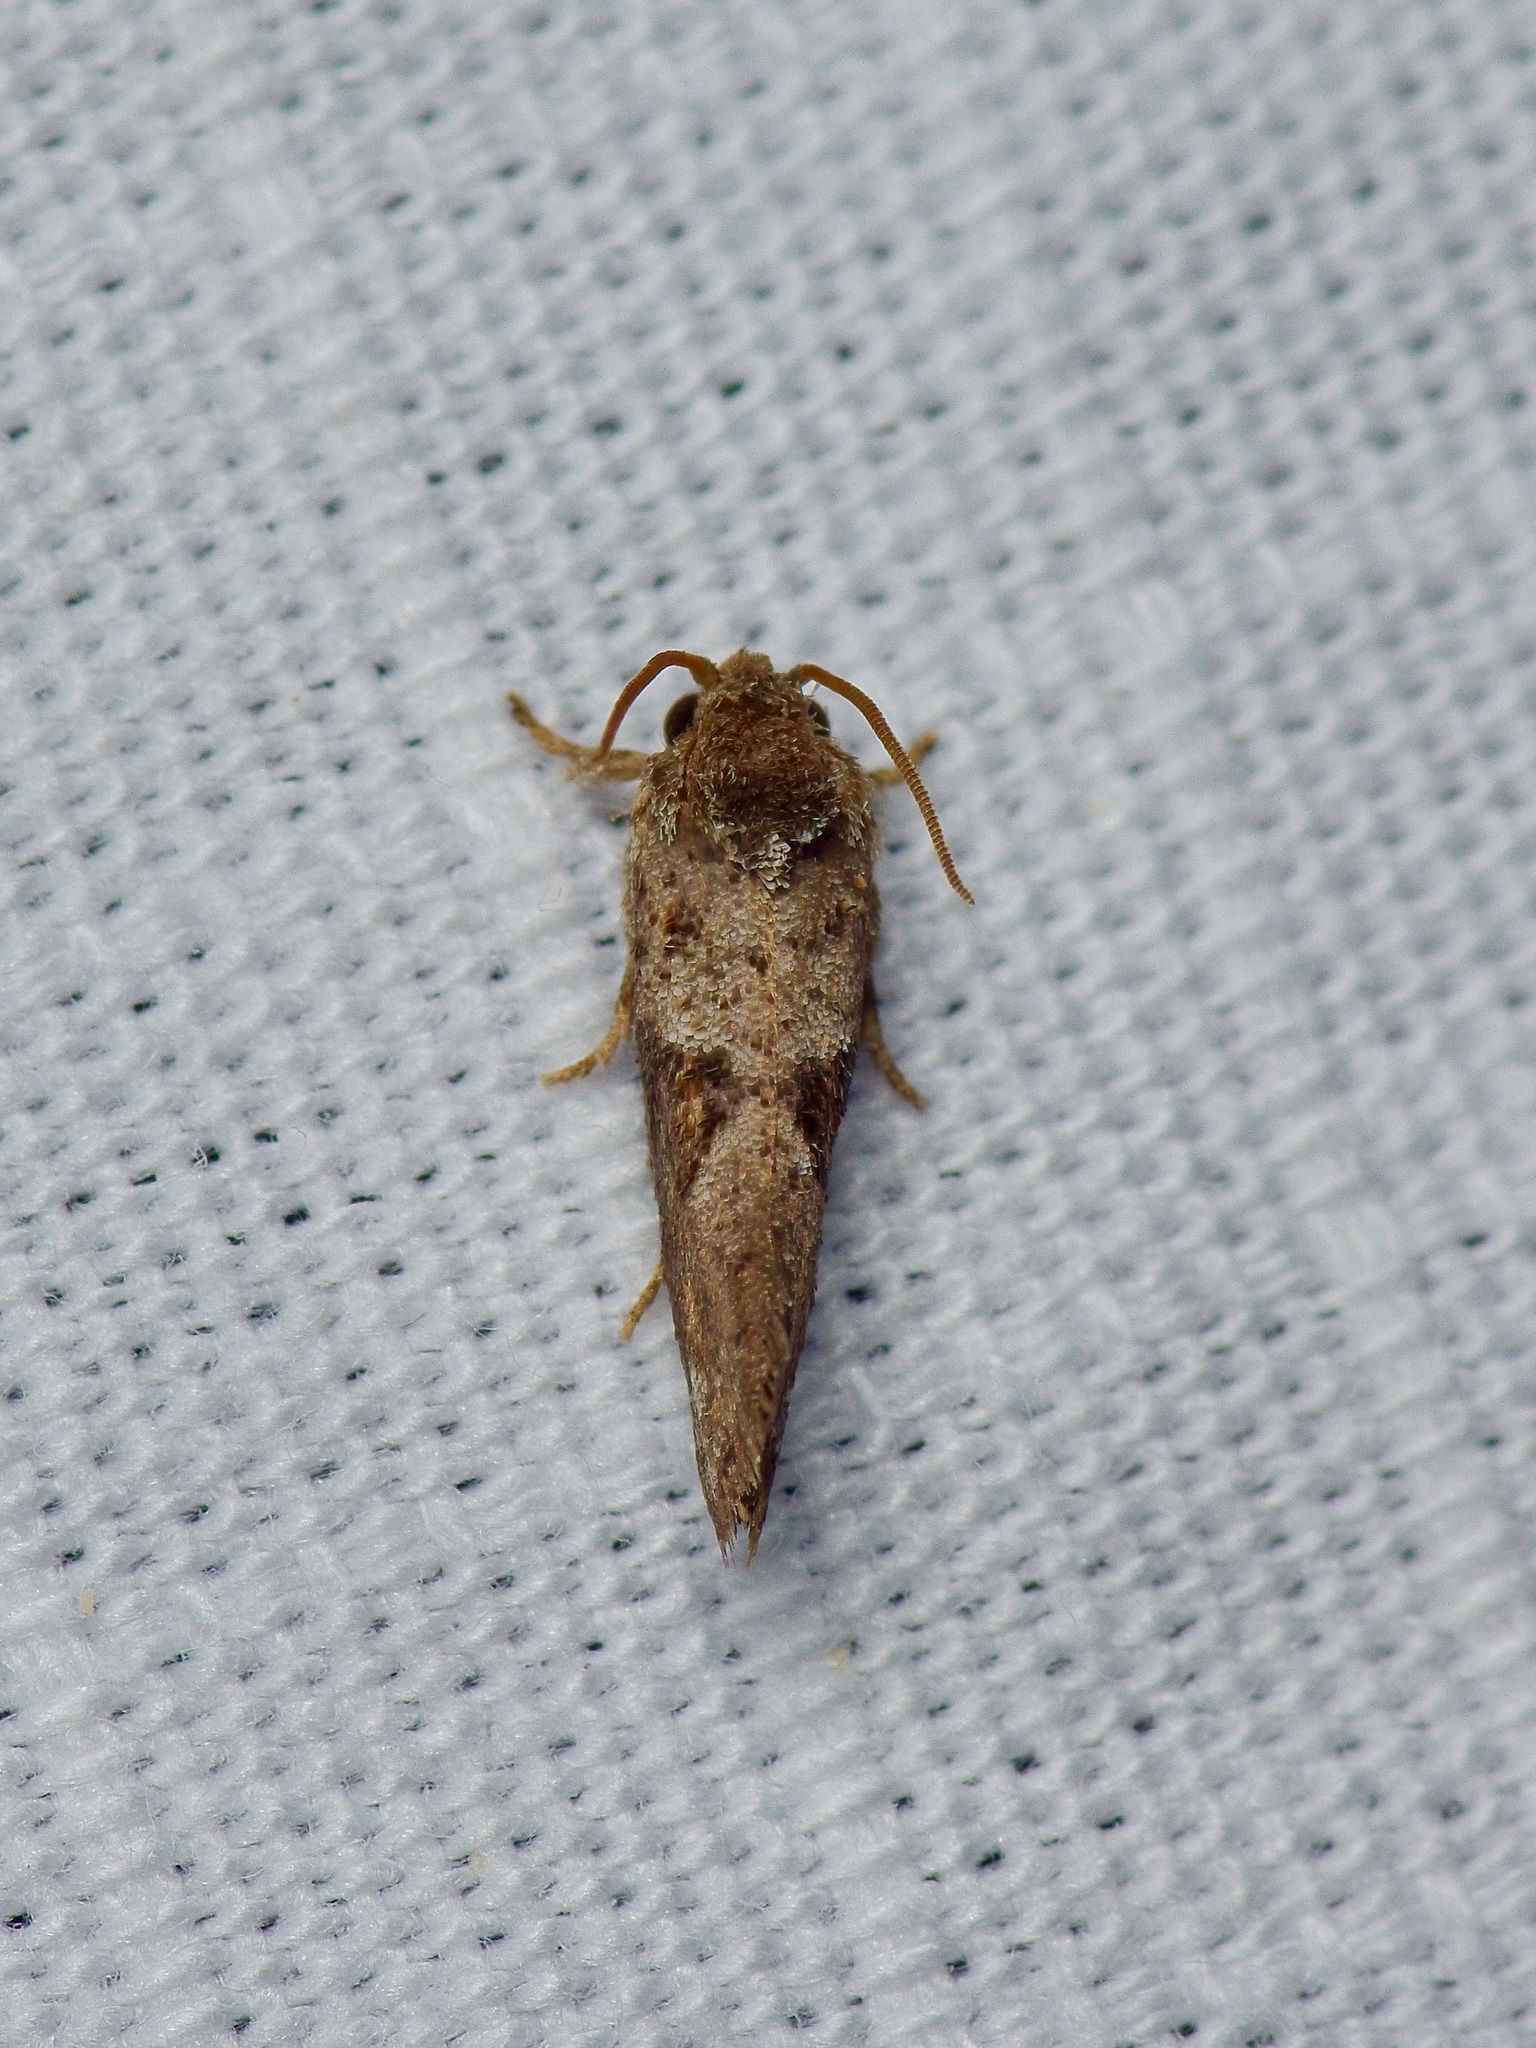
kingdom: Animalia
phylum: Arthropoda
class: Insecta
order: Lepidoptera
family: Tineidae
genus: Acrolophus
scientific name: Acrolophus piger
